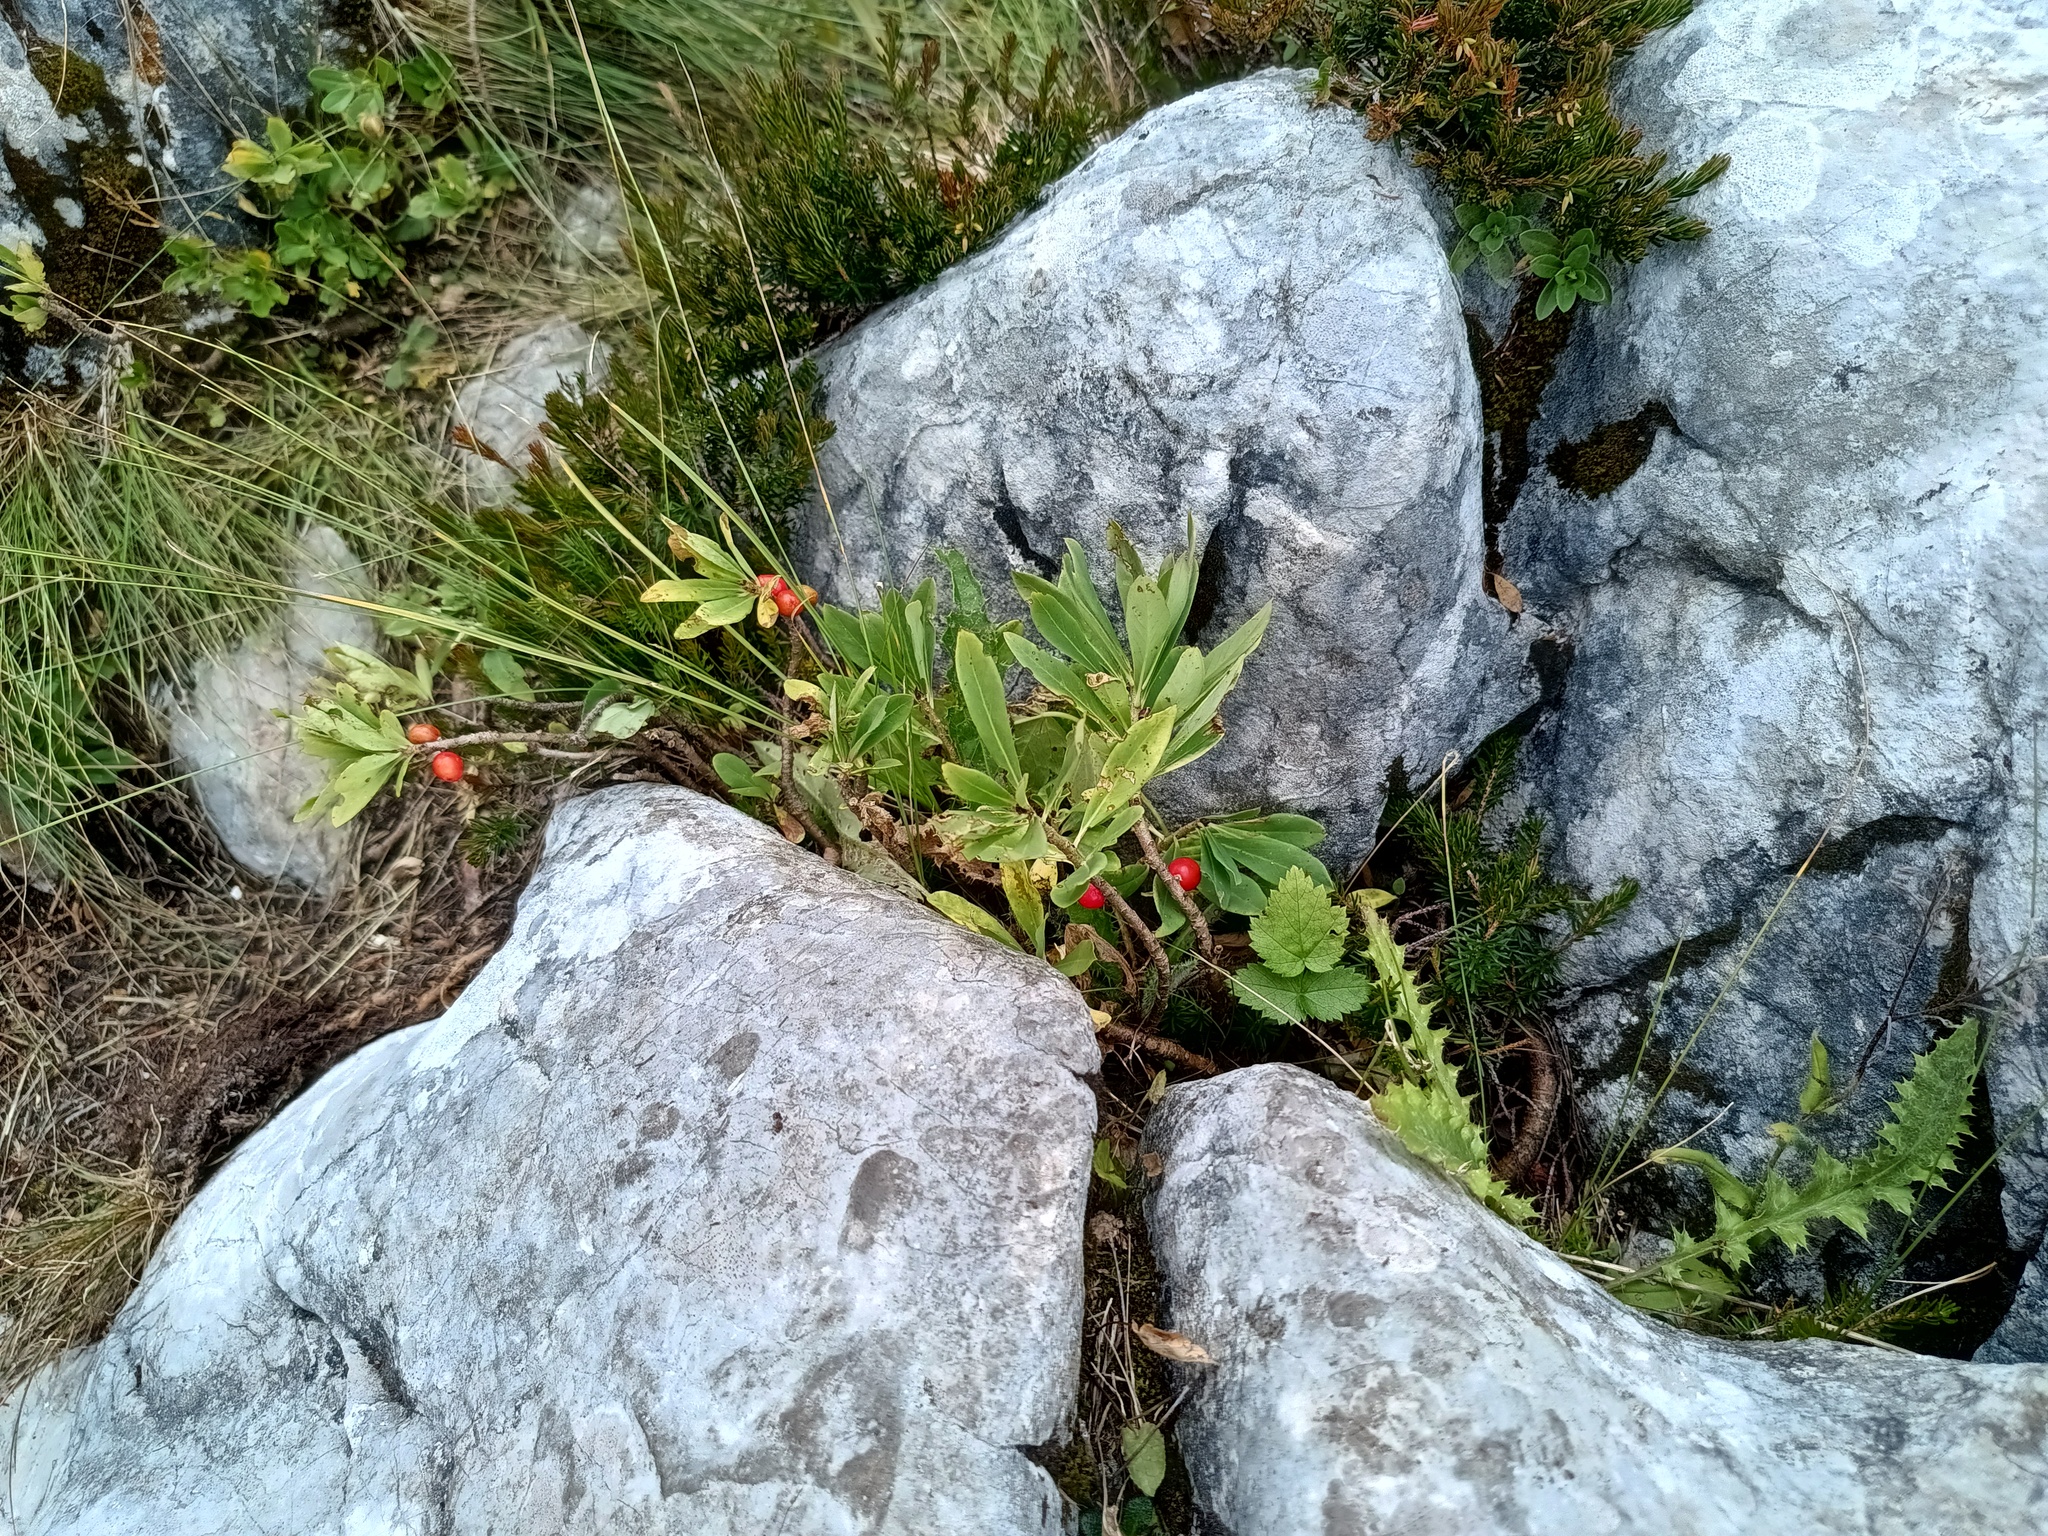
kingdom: Plantae
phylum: Tracheophyta
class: Magnoliopsida
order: Malvales
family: Thymelaeaceae
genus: Daphne
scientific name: Daphne mezereum
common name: Mezereon
